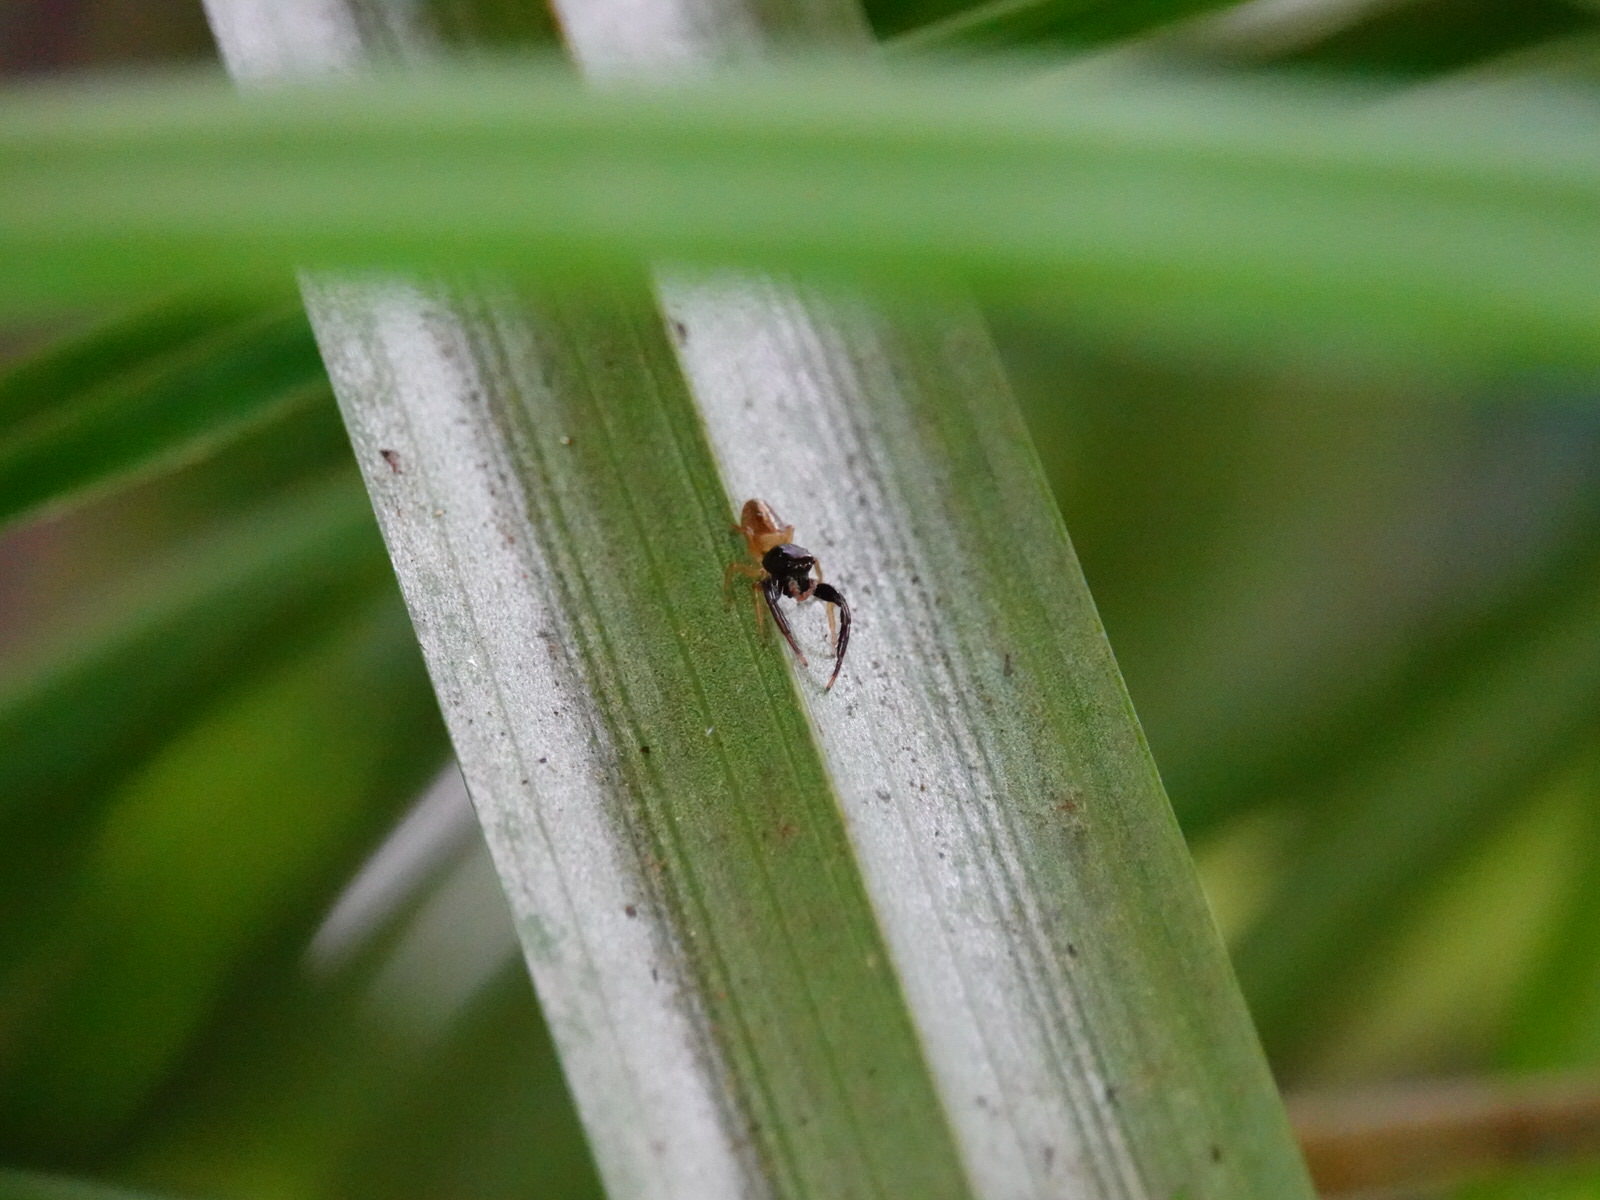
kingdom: Animalia
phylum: Arthropoda
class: Arachnida
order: Araneae
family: Salticidae
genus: Trite
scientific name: Trite planiceps
